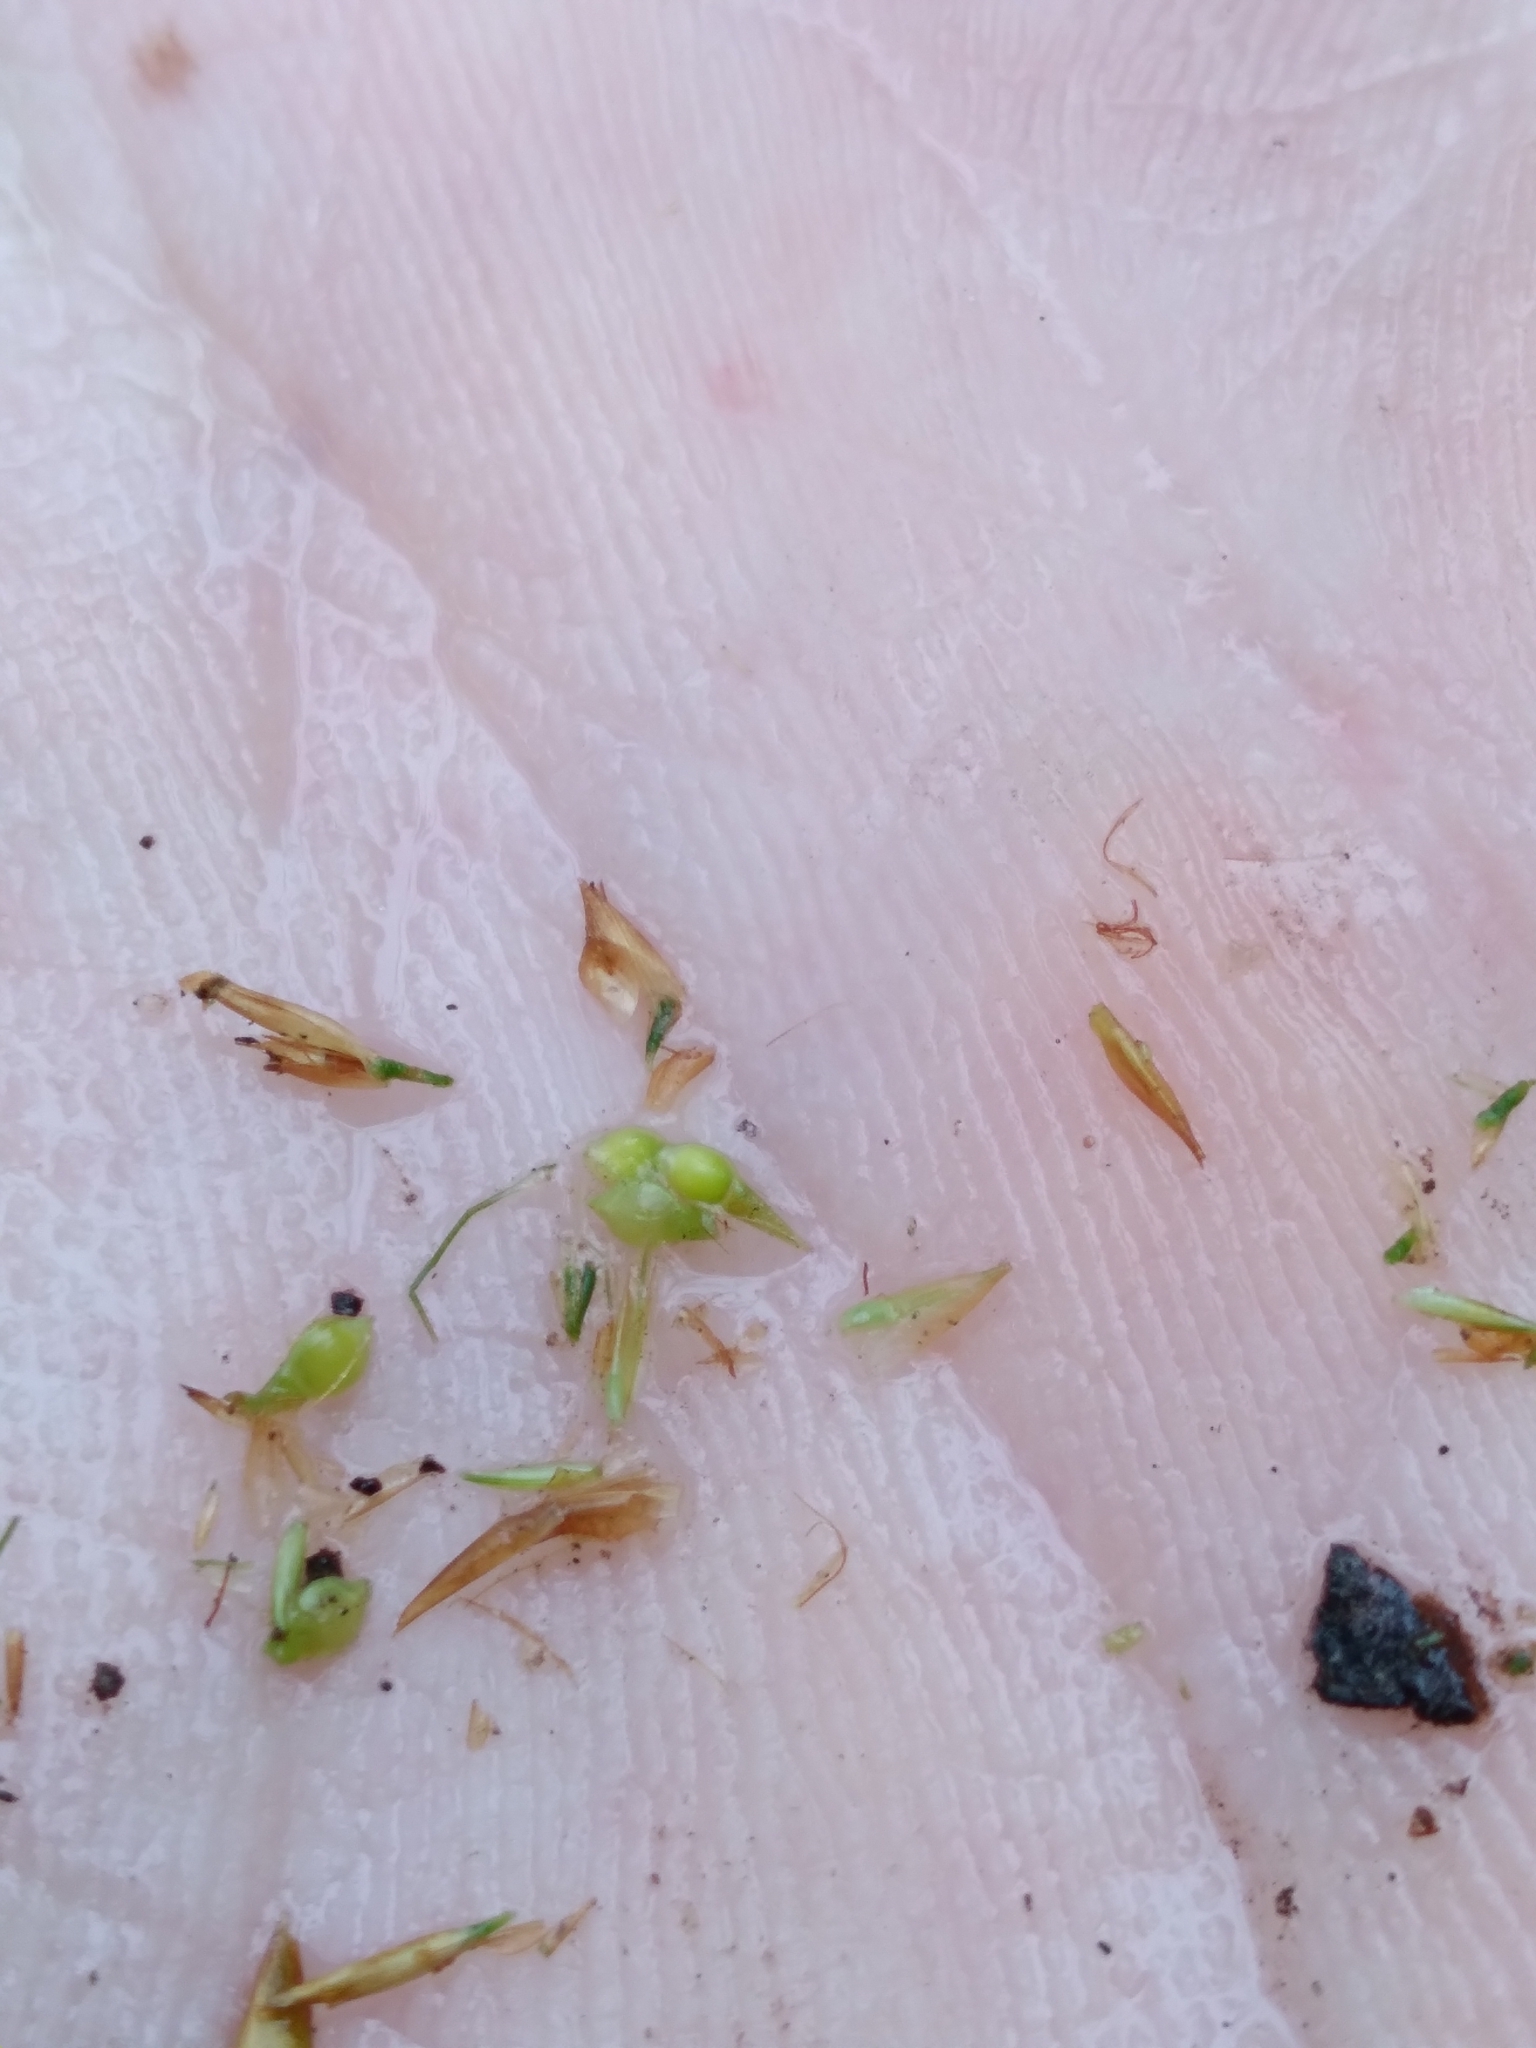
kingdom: Plantae
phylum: Tracheophyta
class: Liliopsida
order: Poales
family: Cyperaceae
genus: Rhynchospora
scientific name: Rhynchospora gracilenta
